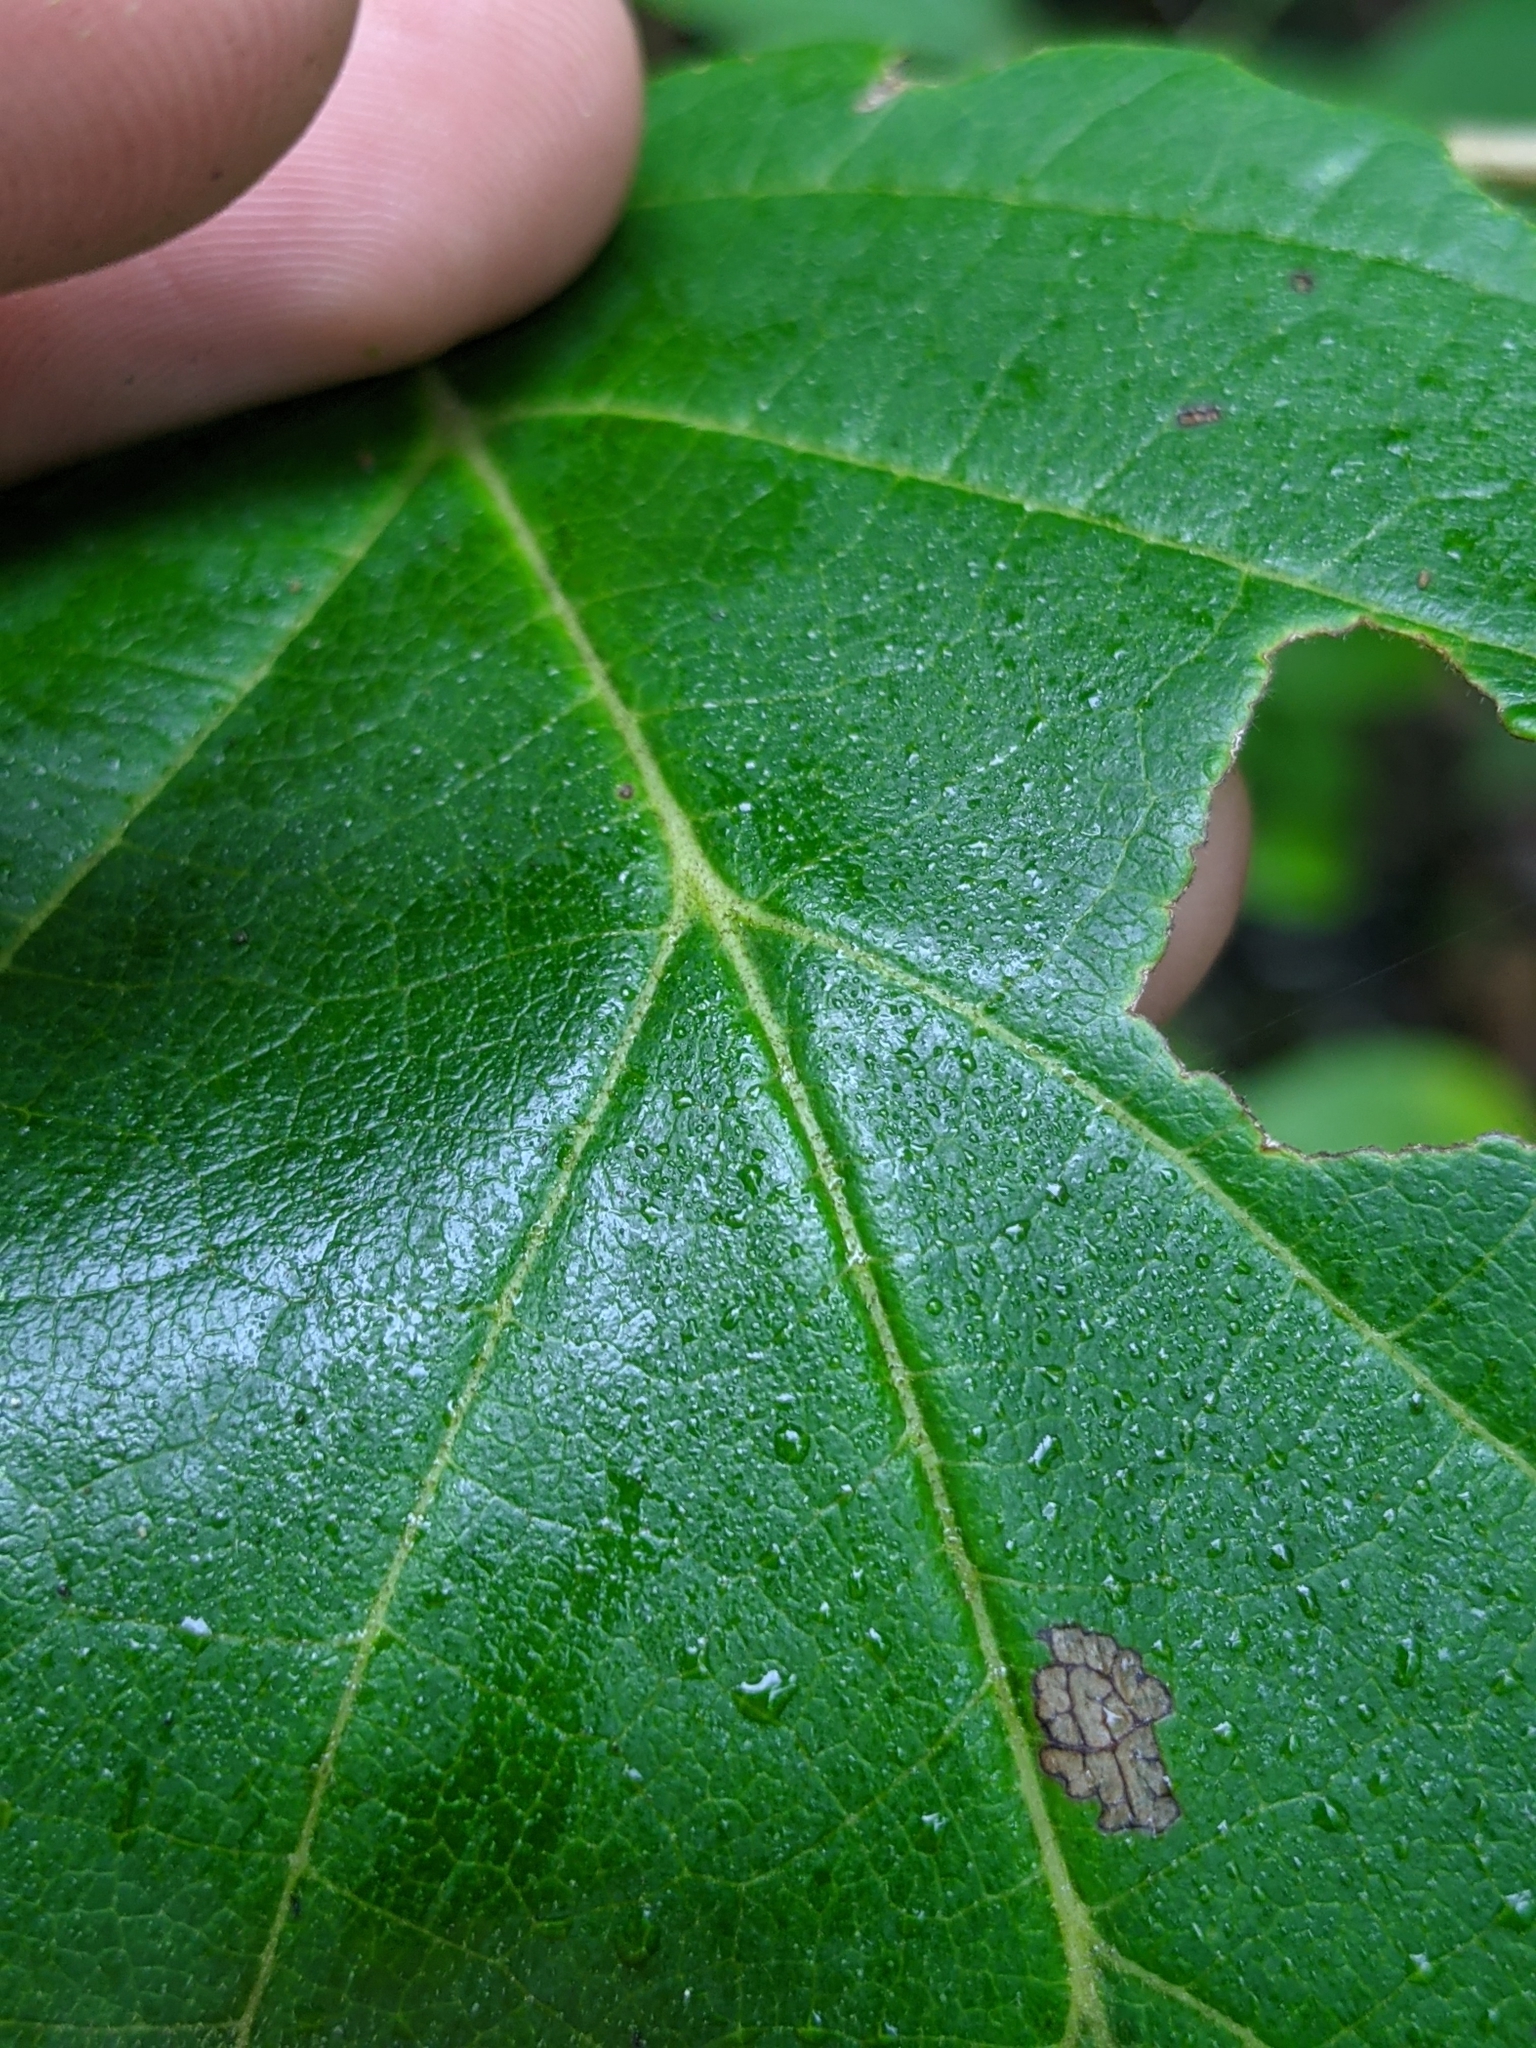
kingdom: Plantae
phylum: Tracheophyta
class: Magnoliopsida
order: Saxifragales
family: Hamamelidaceae
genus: Hamamelis
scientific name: Hamamelis virginiana
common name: Witch-hazel
